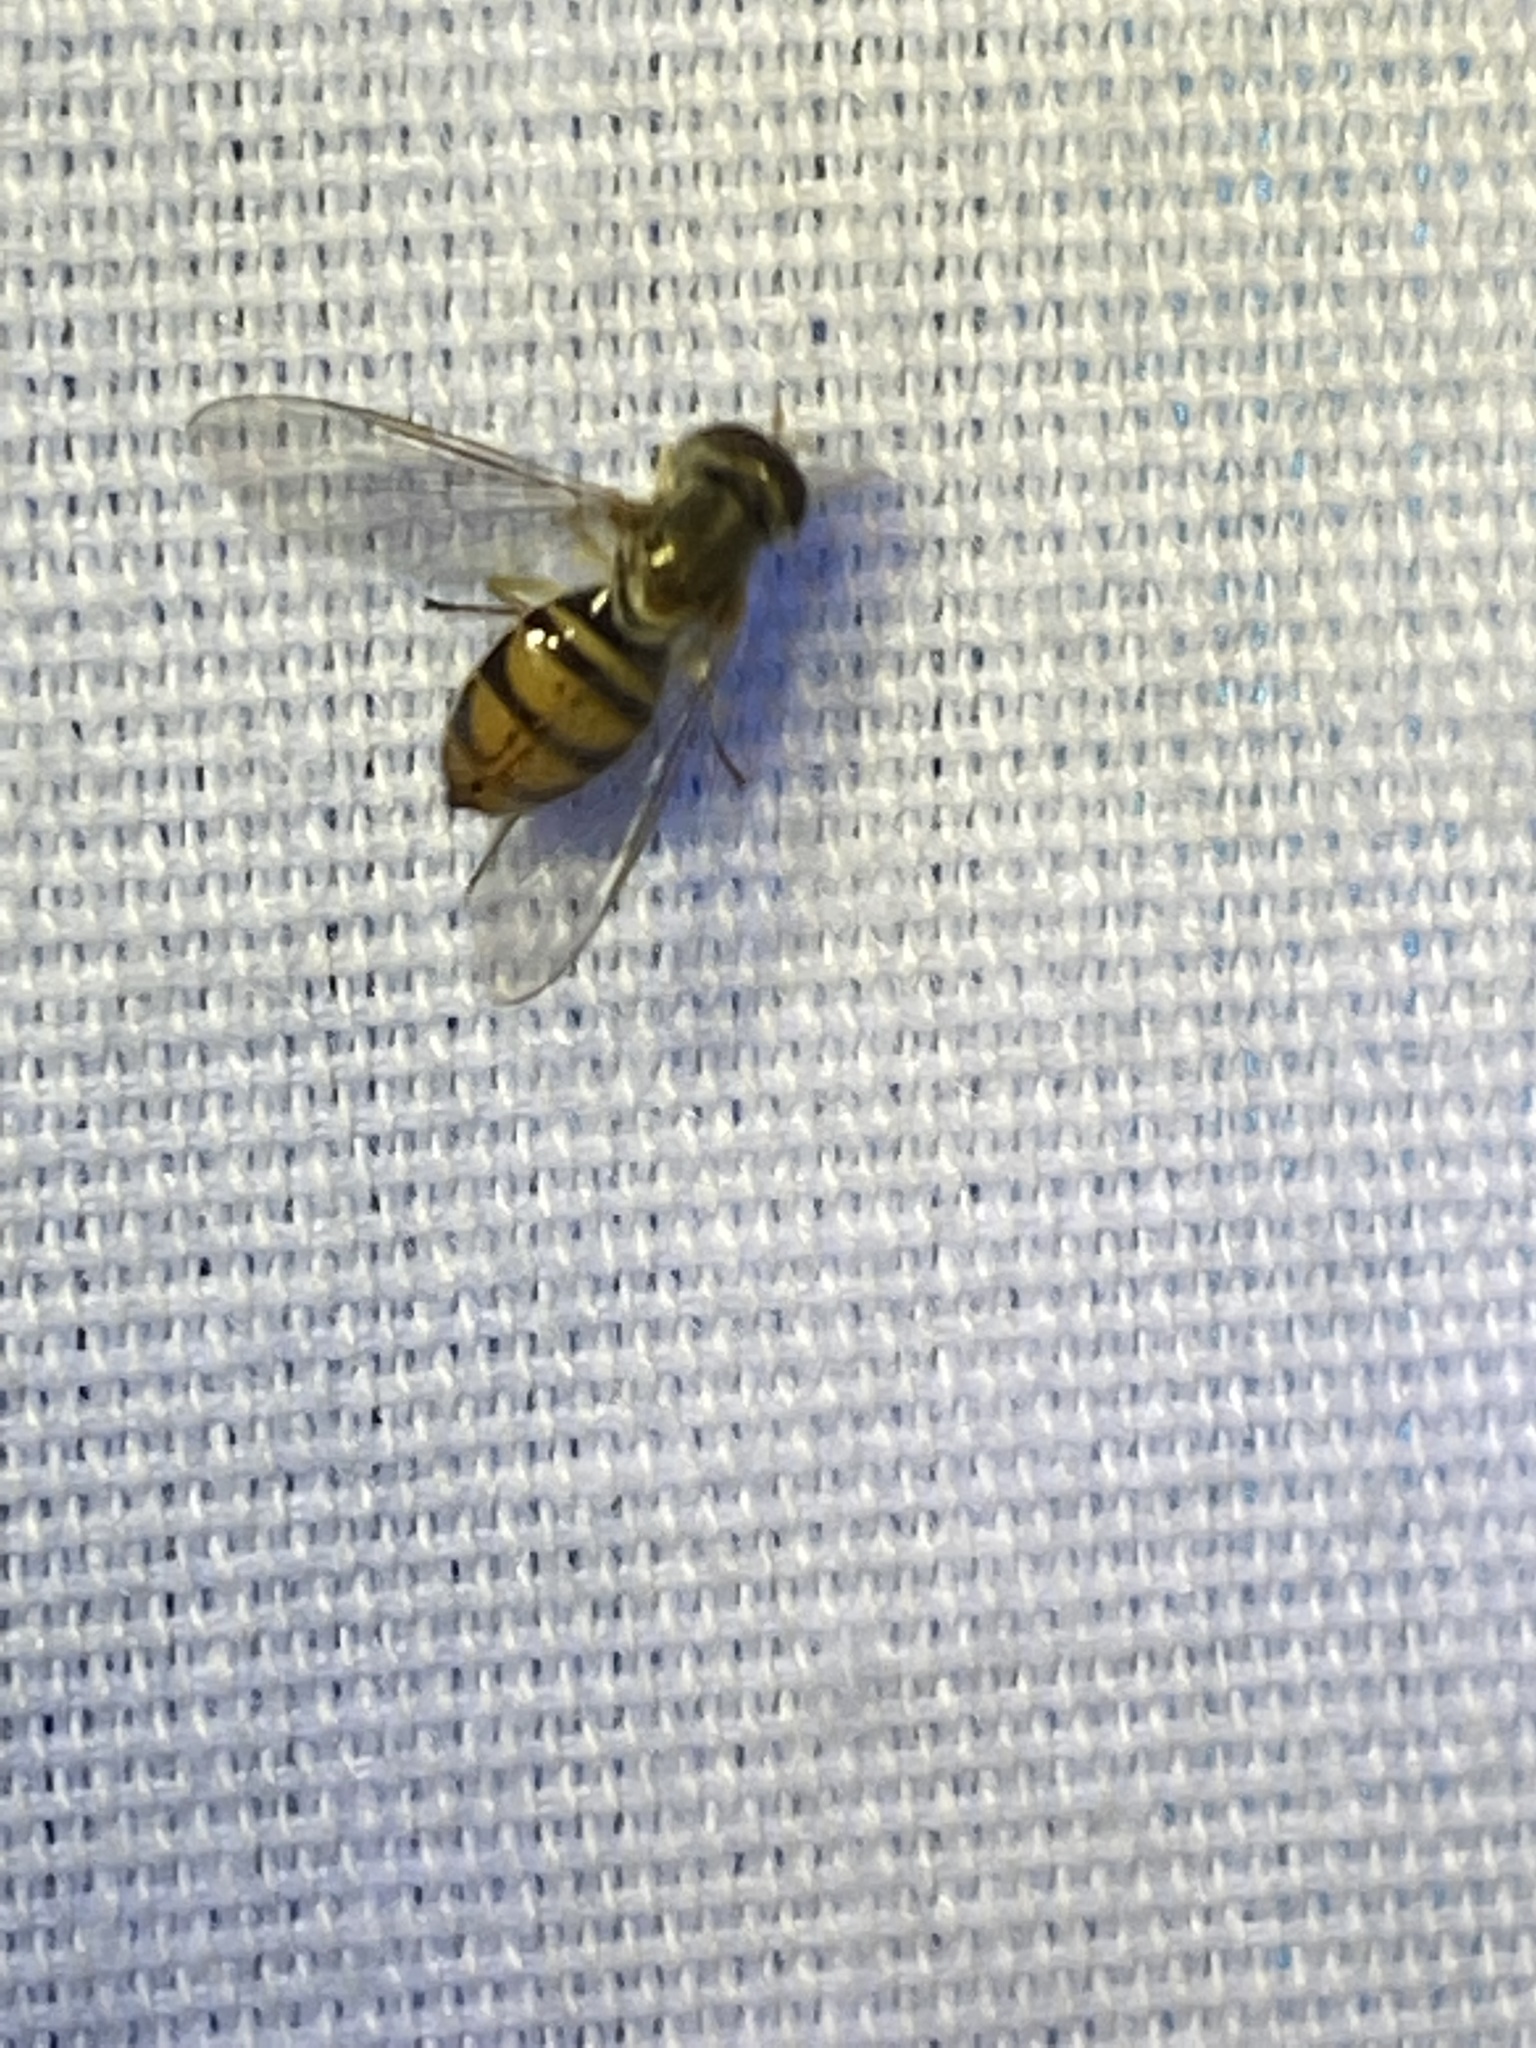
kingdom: Animalia
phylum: Arthropoda
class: Insecta
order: Diptera
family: Syrphidae
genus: Toxomerus
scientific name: Toxomerus marginatus
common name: Syrphid fly
